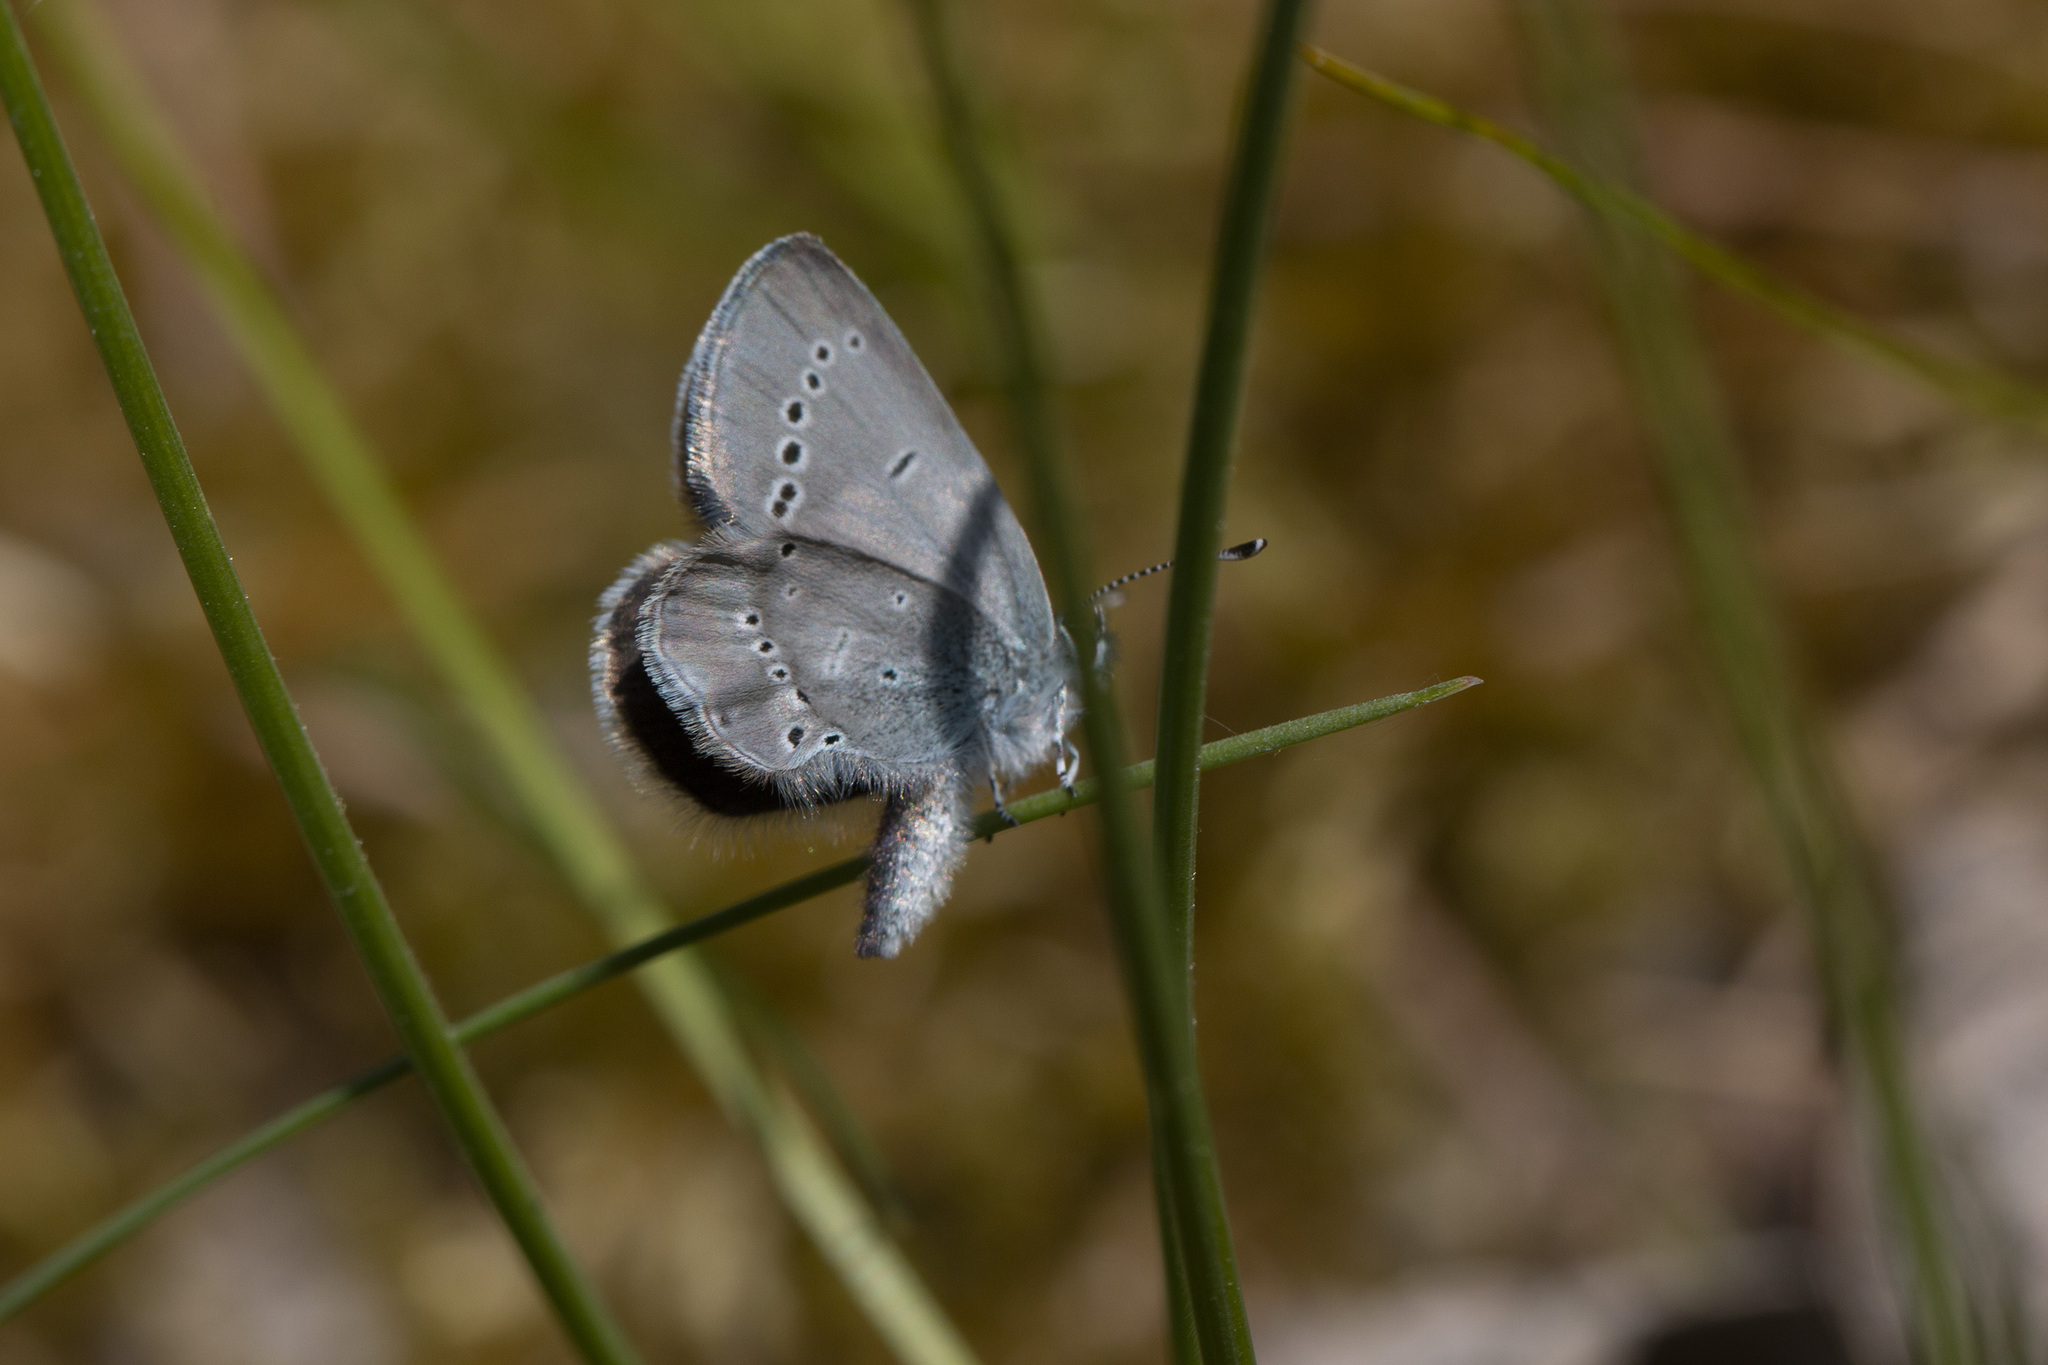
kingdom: Animalia
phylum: Arthropoda
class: Insecta
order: Lepidoptera
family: Lycaenidae
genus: Cupido
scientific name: Cupido minimus
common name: Small blue
